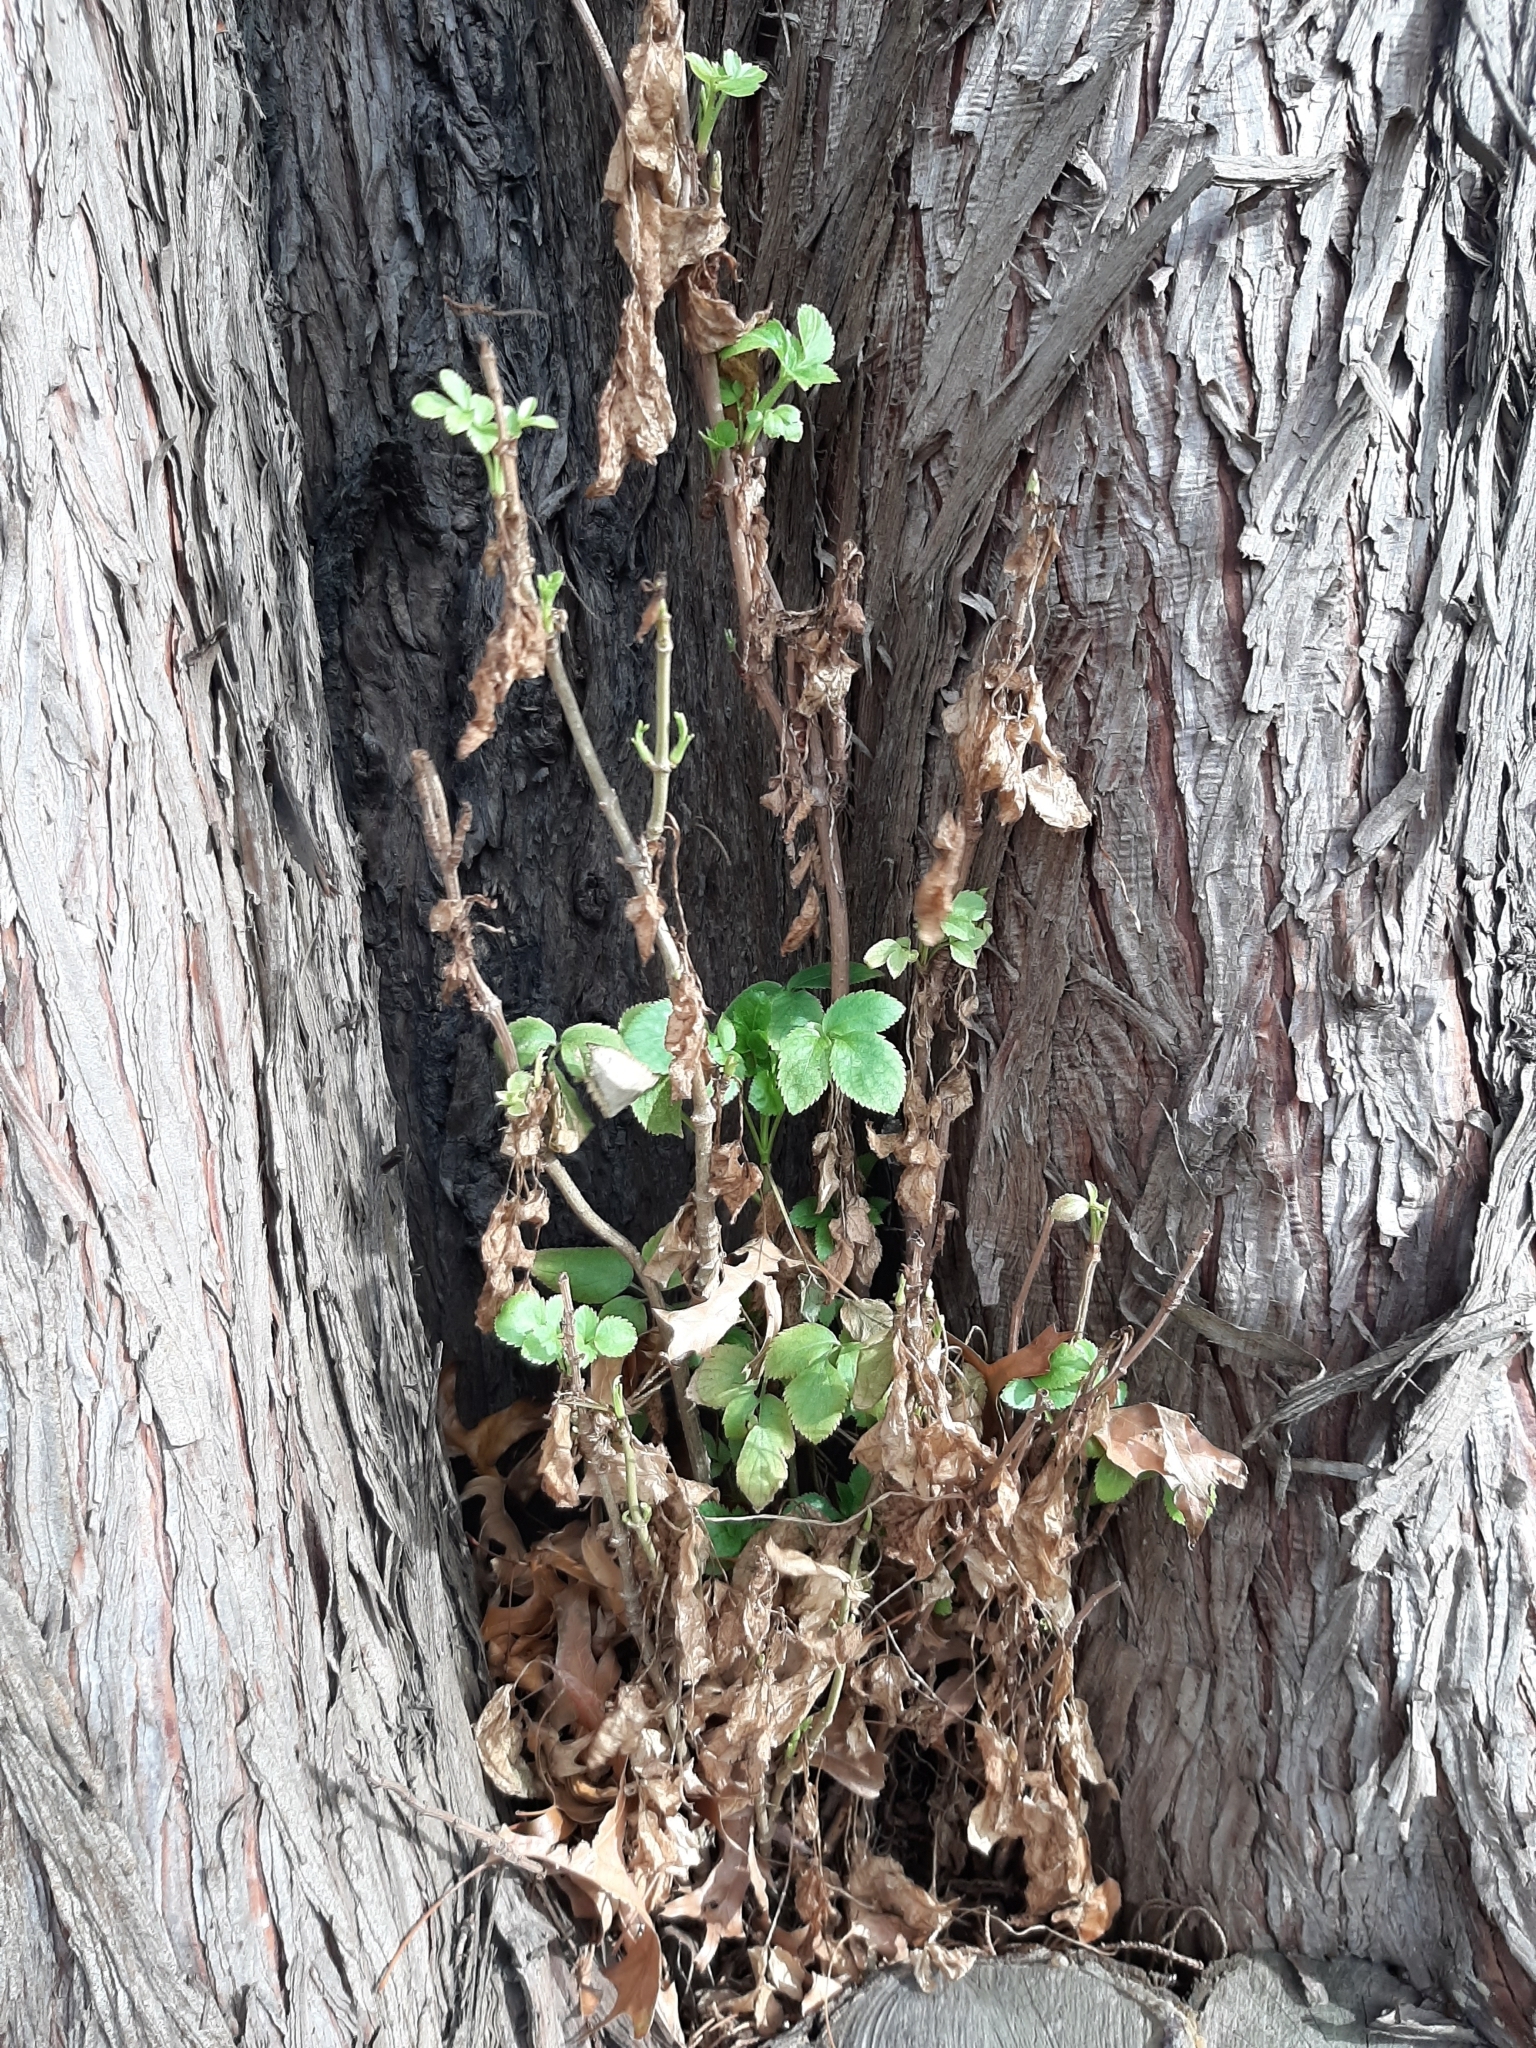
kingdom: Plantae
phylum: Tracheophyta
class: Magnoliopsida
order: Dipsacales
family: Viburnaceae
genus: Sambucus
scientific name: Sambucus nigra
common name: Elder
